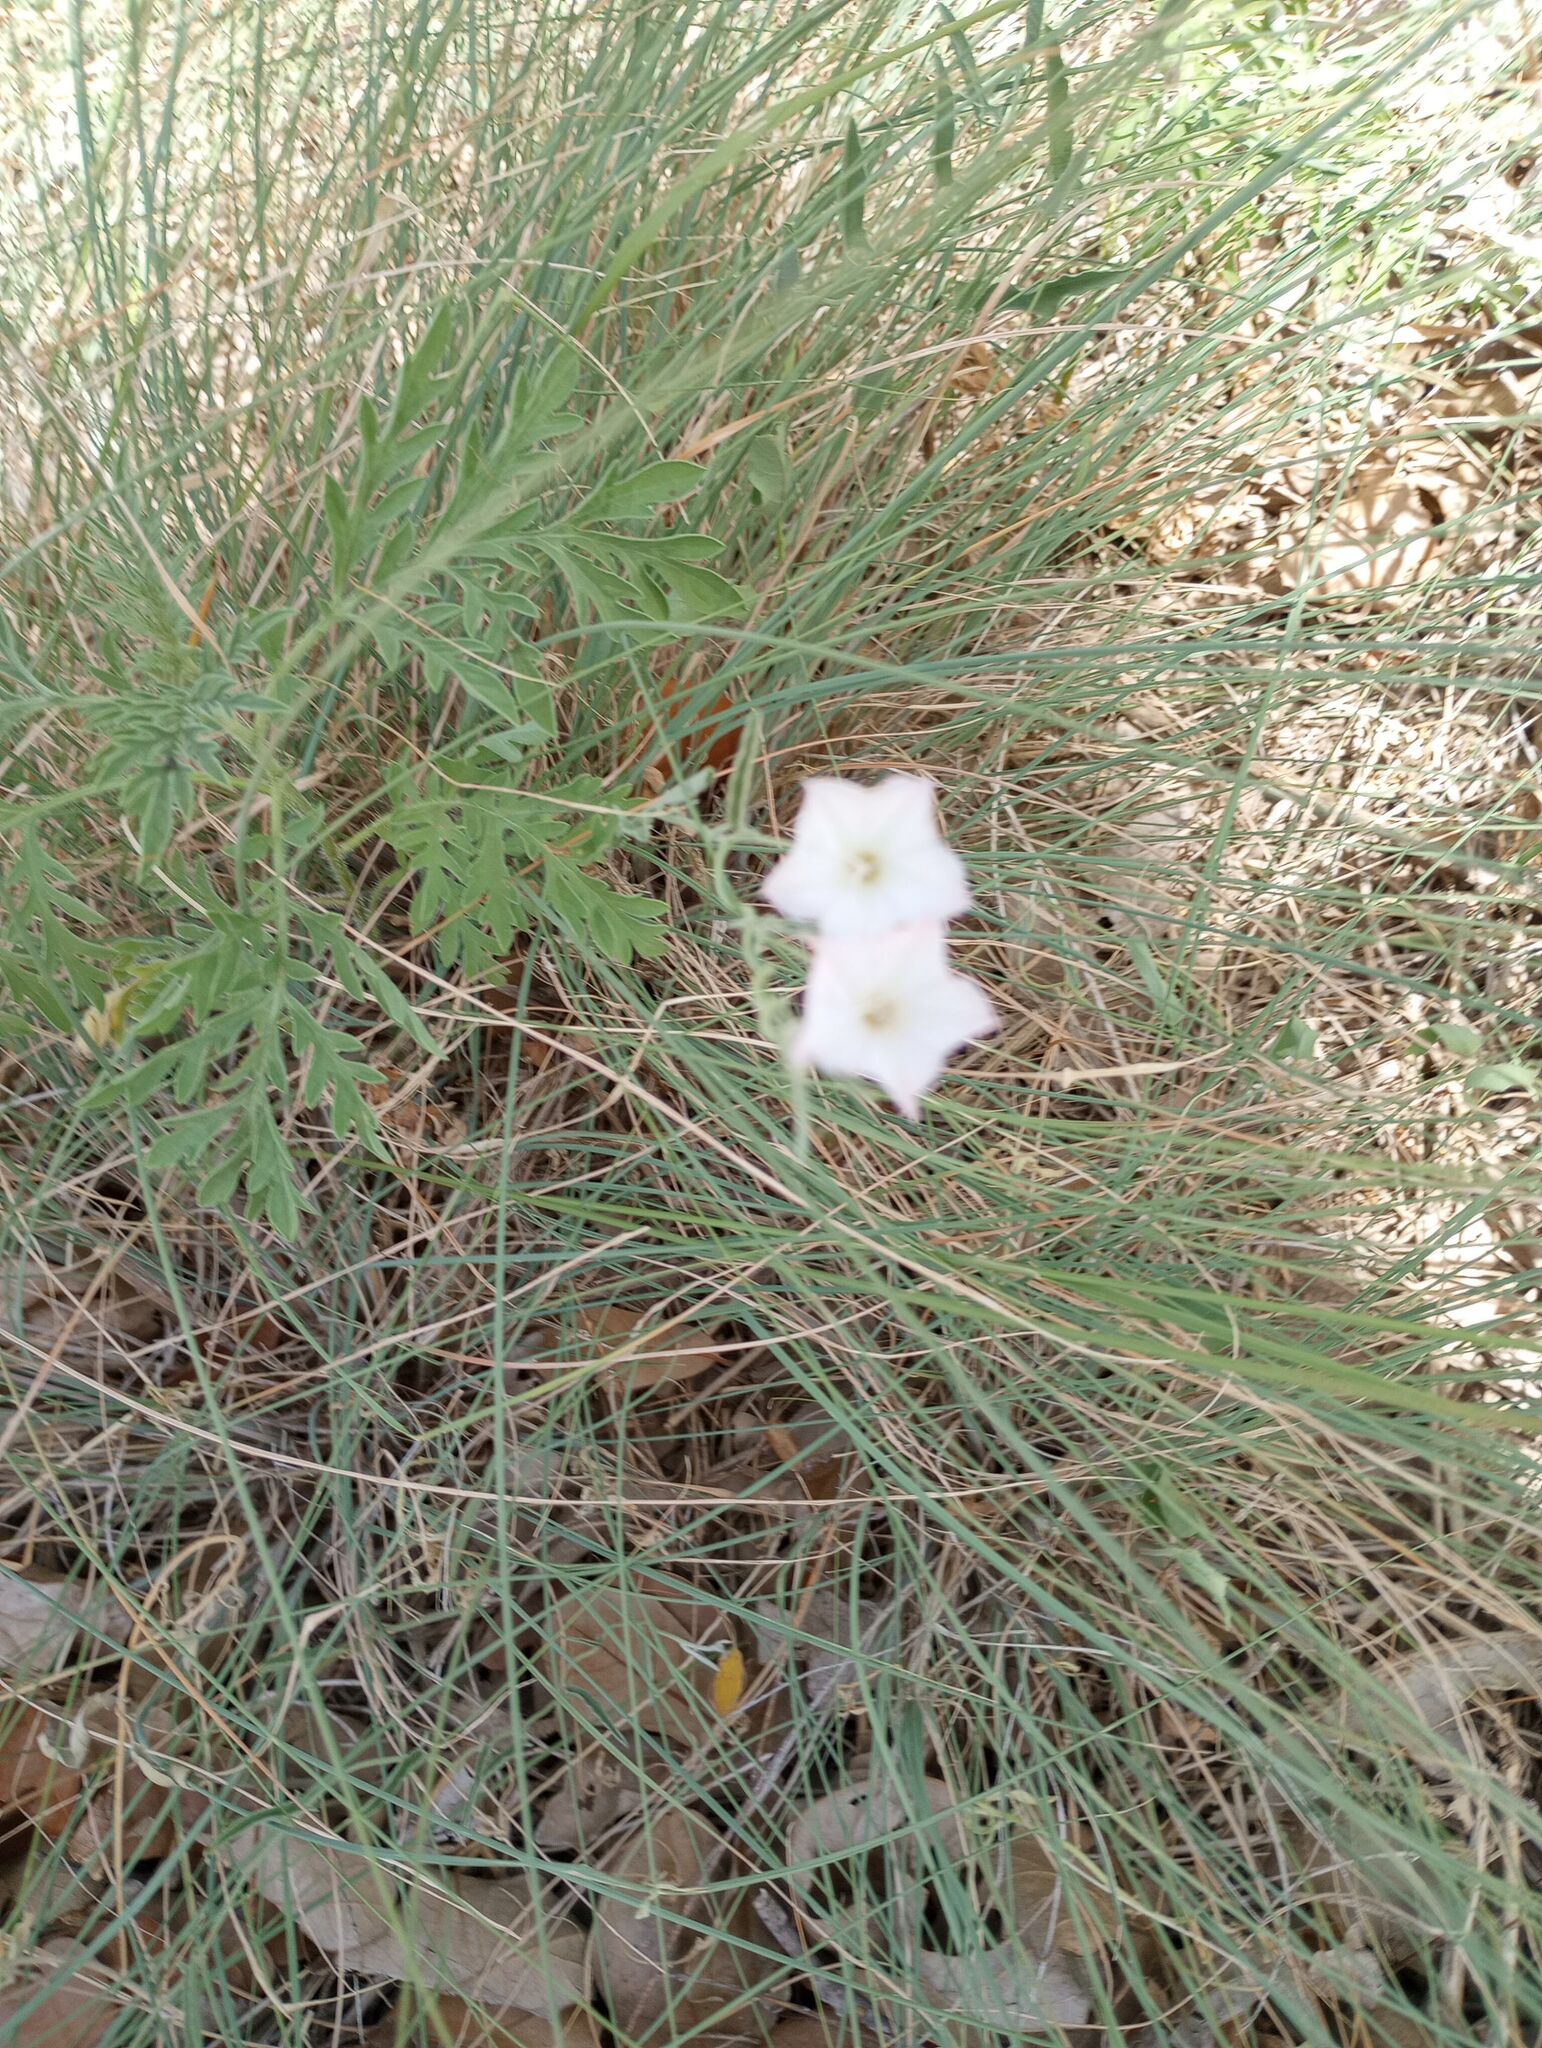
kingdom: Plantae
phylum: Tracheophyta
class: Magnoliopsida
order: Solanales
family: Convolvulaceae
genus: Convolvulus
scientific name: Convolvulus equitans
